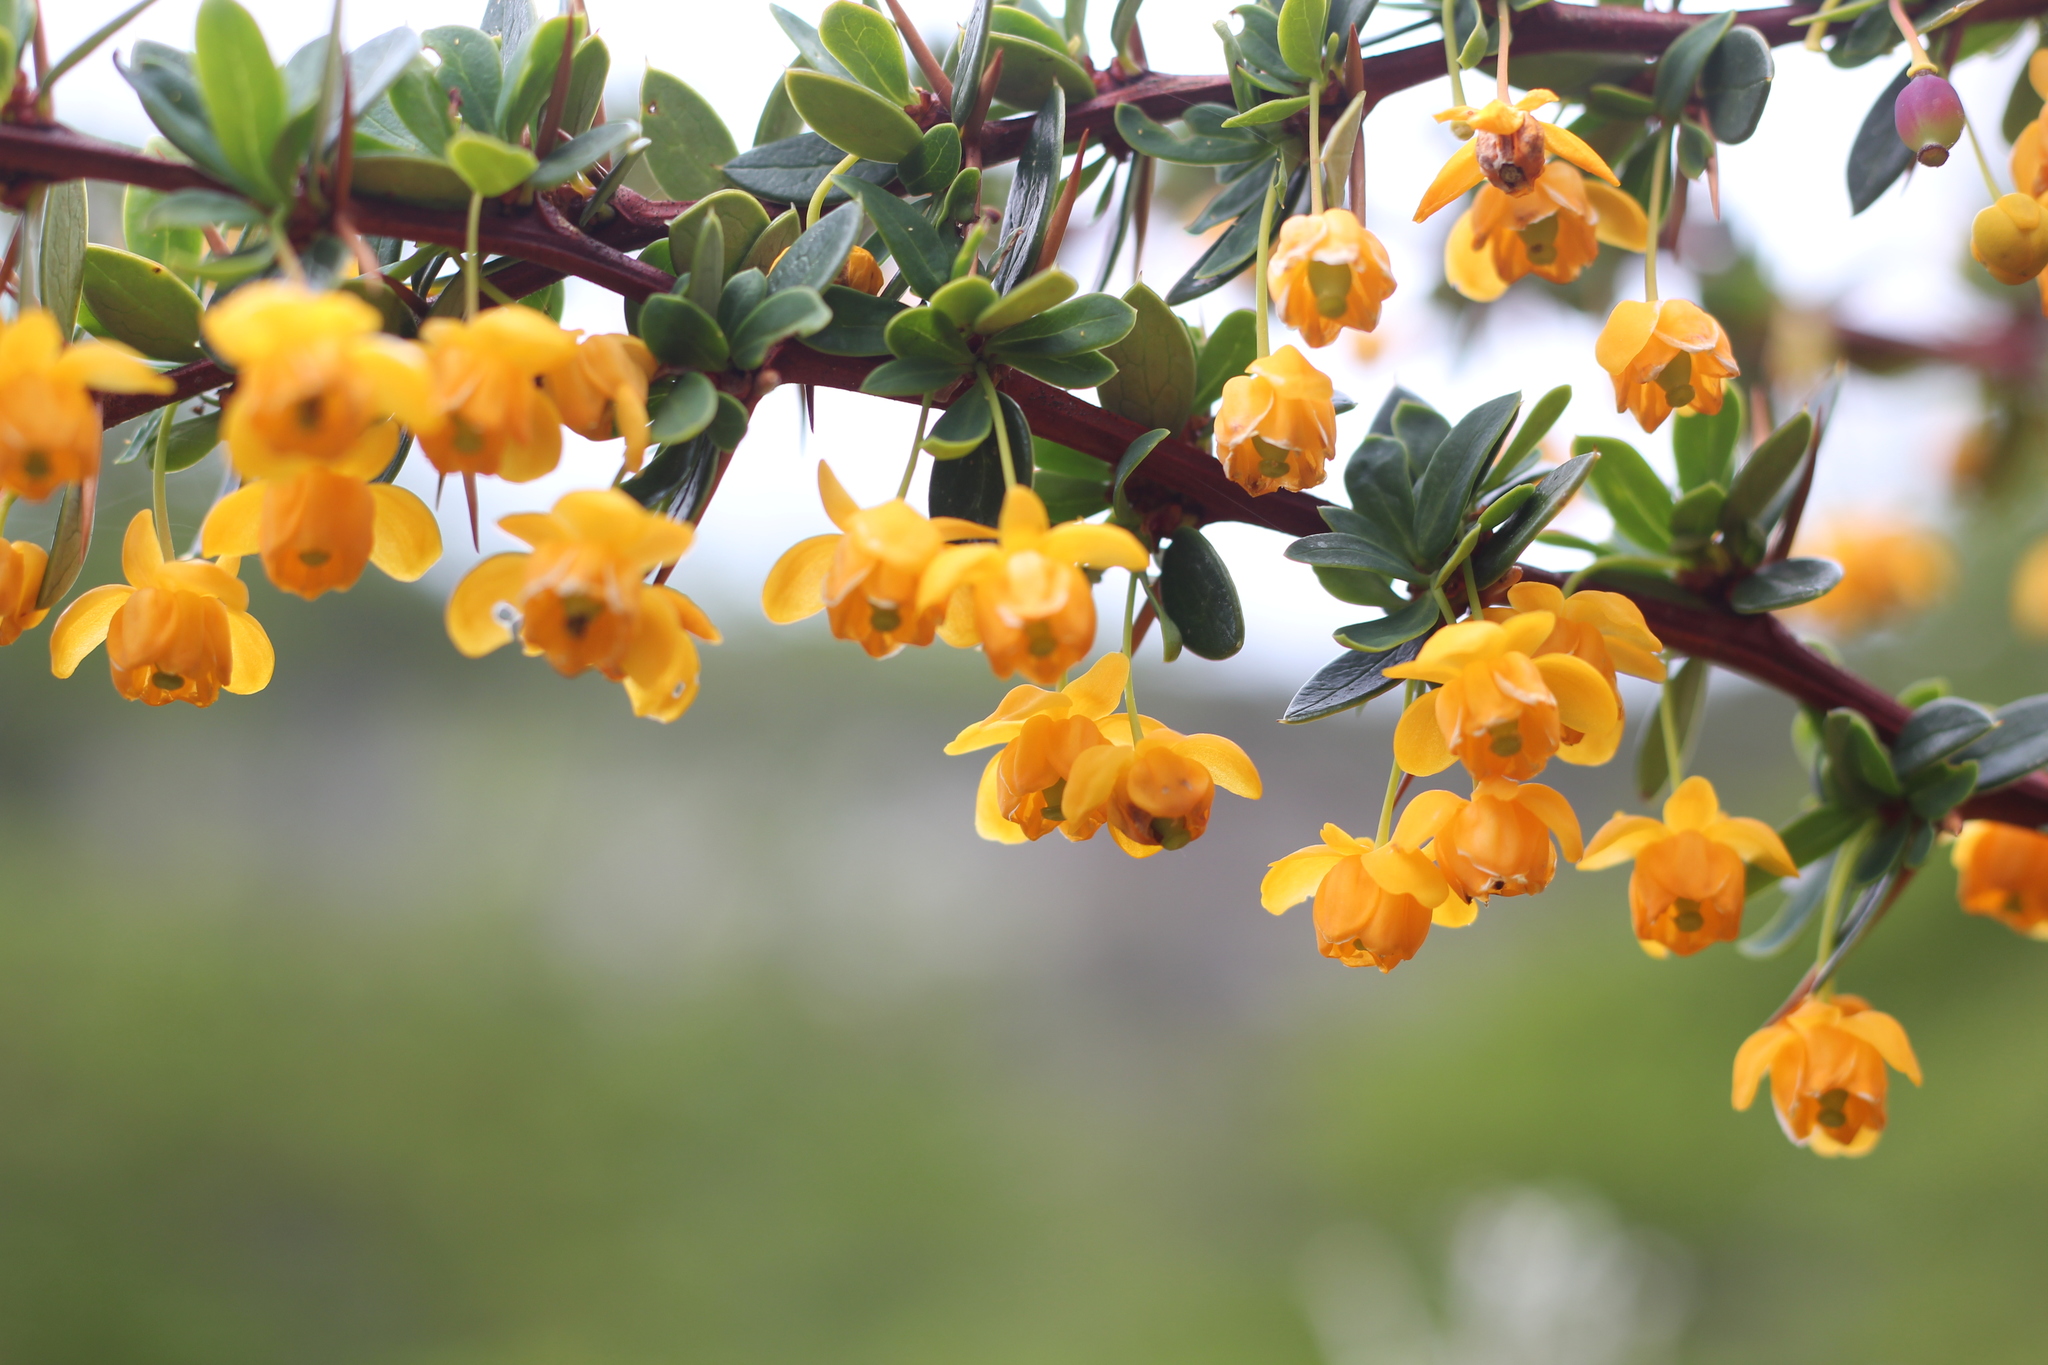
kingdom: Plantae
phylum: Tracheophyta
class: Magnoliopsida
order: Ranunculales
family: Berberidaceae
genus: Berberis
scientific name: Berberis microphylla
